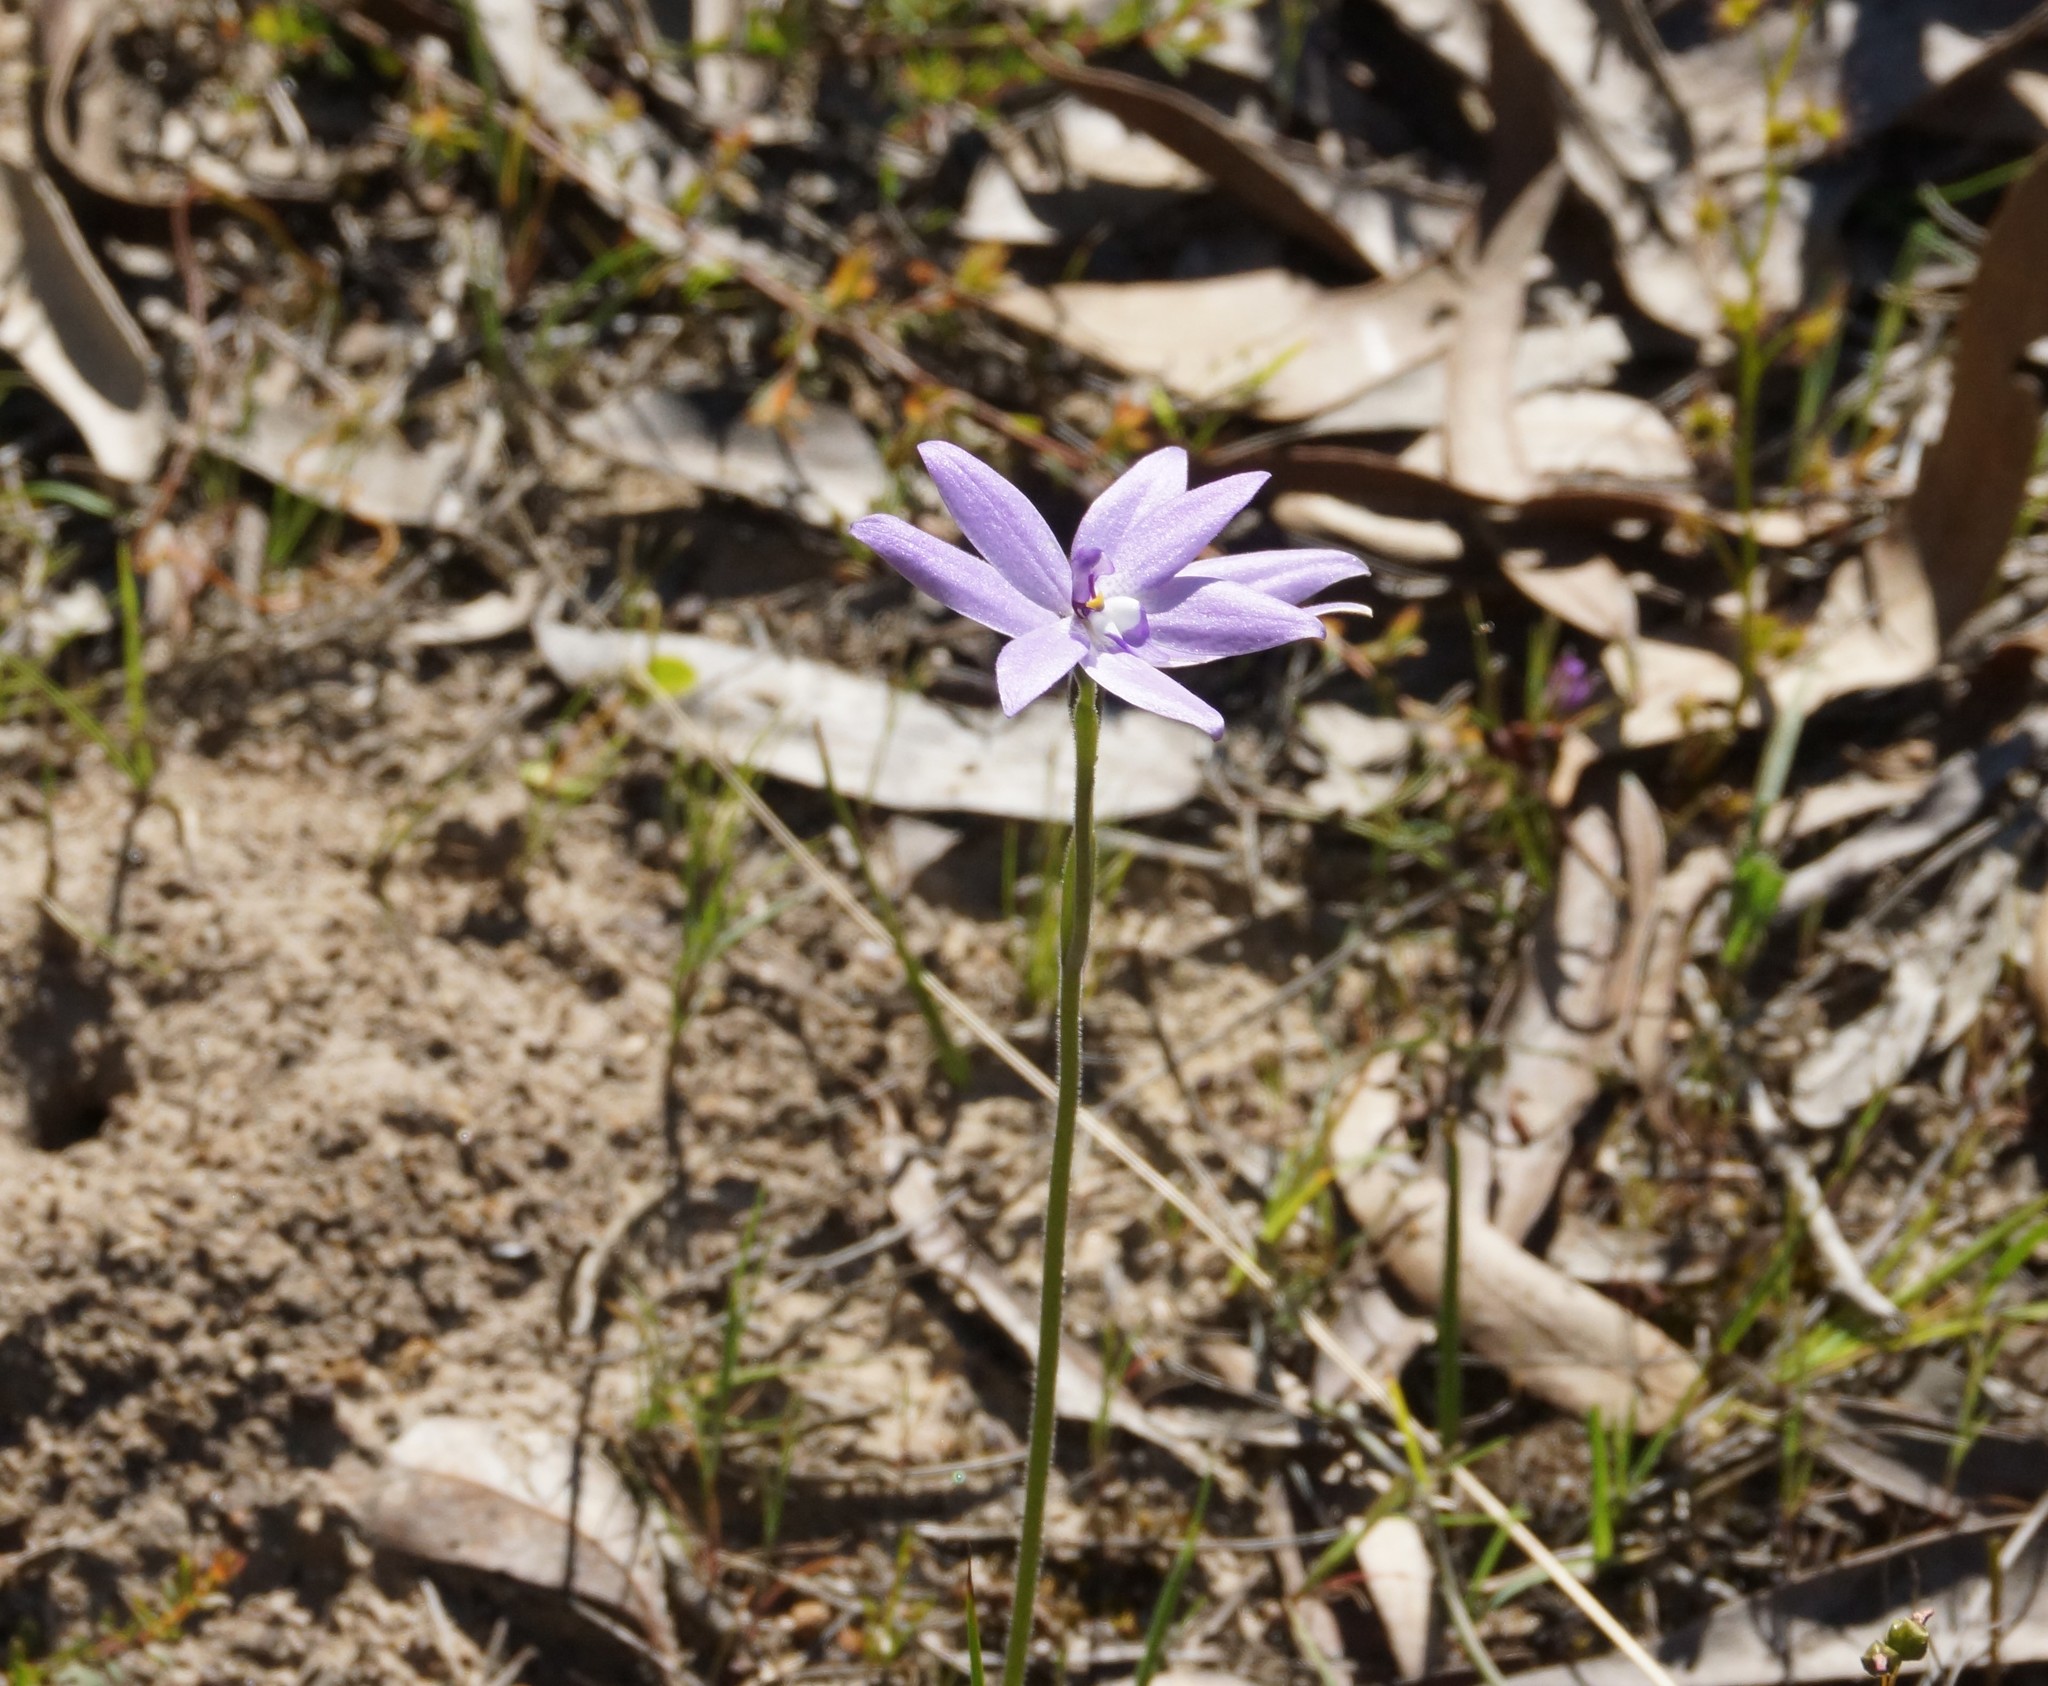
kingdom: Plantae
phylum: Tracheophyta
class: Liliopsida
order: Asparagales
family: Orchidaceae
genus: Caladenia
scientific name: Caladenia major
